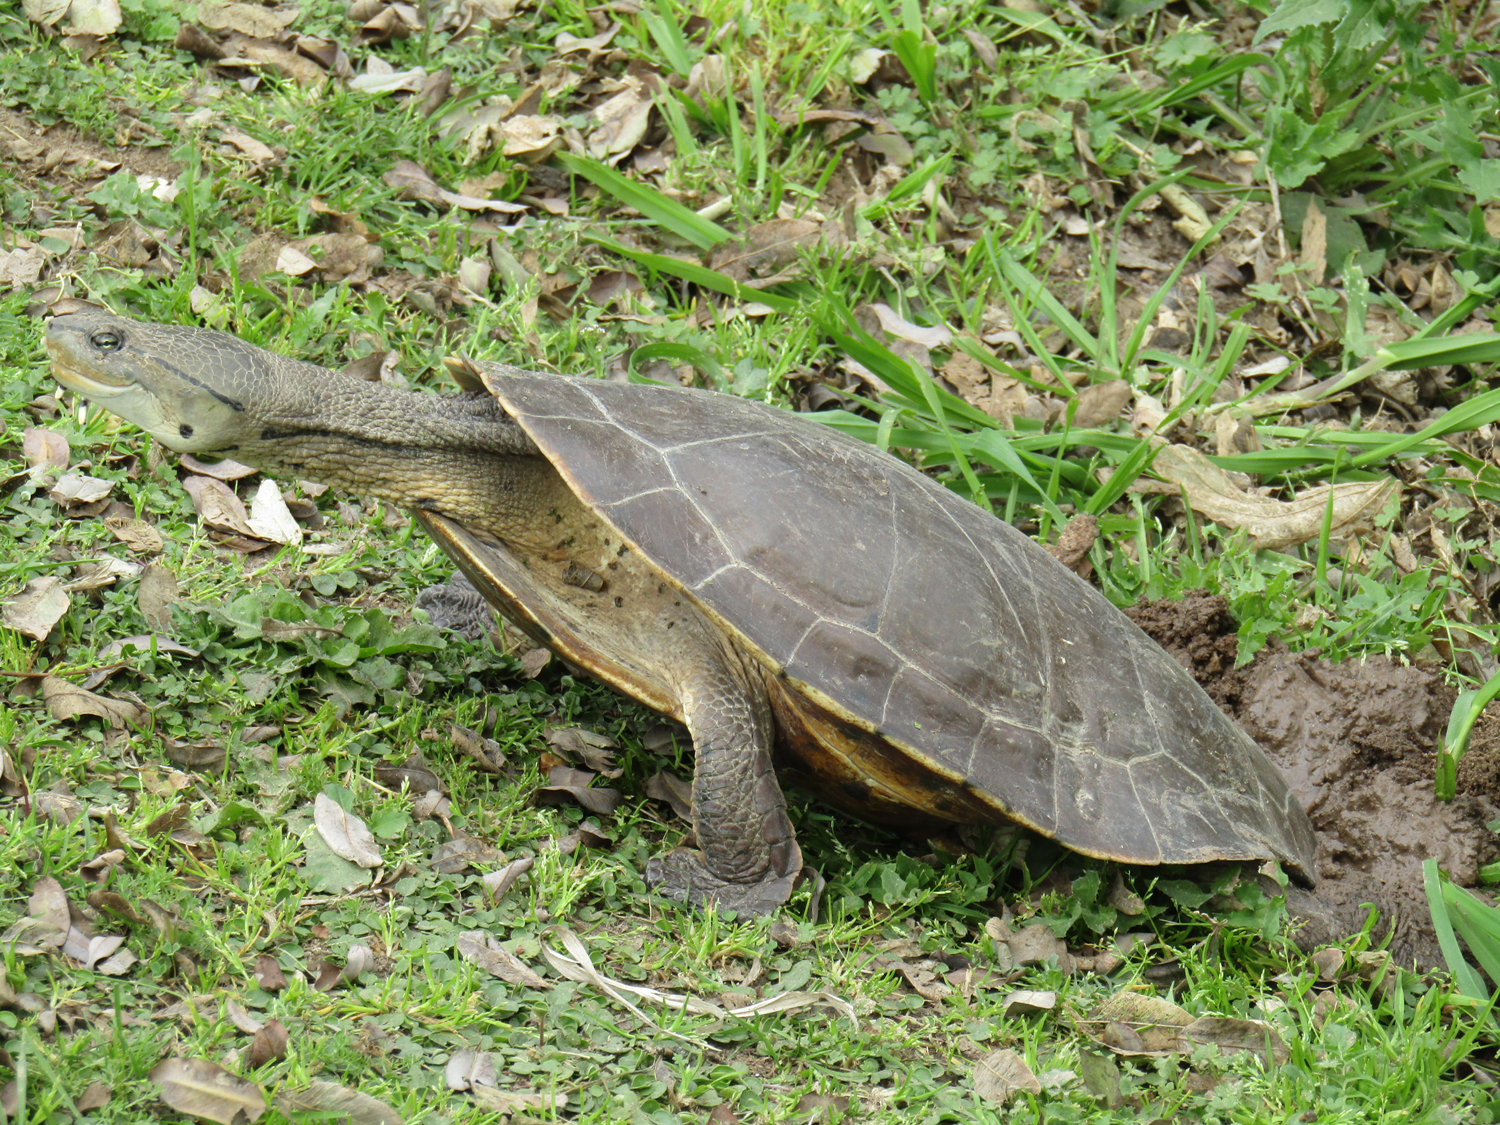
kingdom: Animalia
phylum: Chordata
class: Testudines
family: Chelidae
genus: Phrynops
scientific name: Phrynops hilarii
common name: Side-necked turtle of saint hillaire
